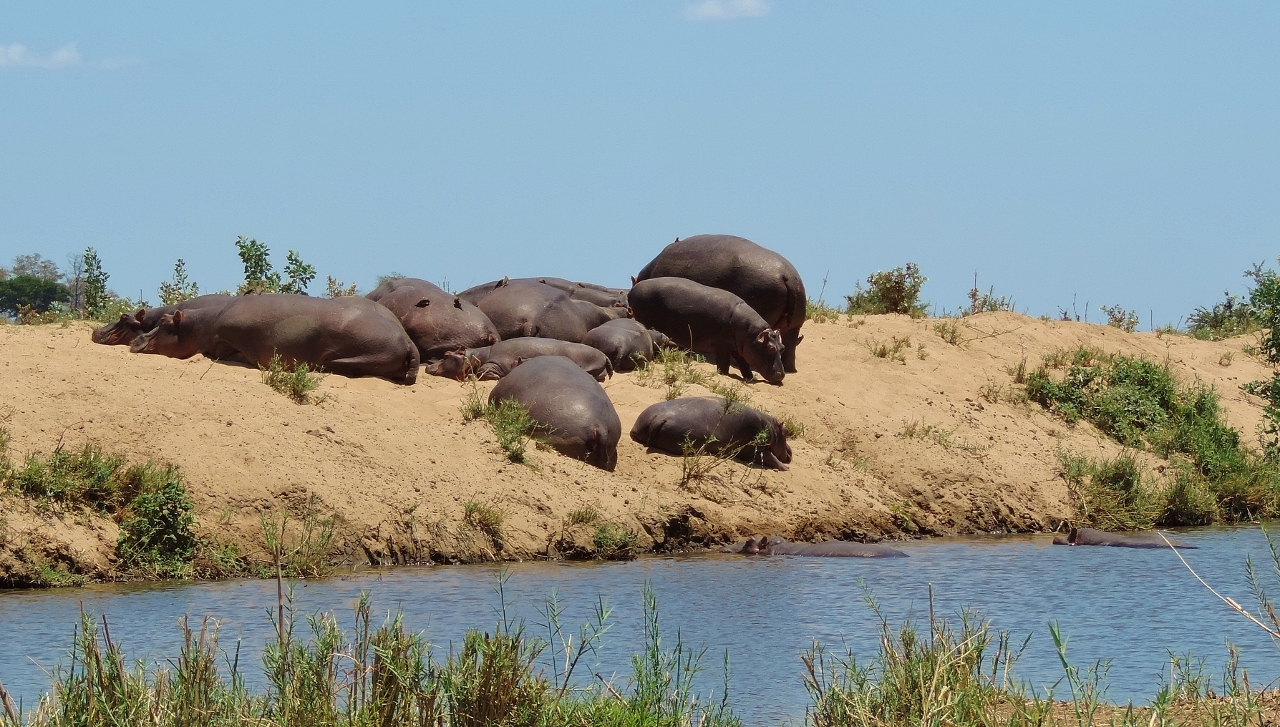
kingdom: Animalia
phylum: Chordata
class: Mammalia
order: Artiodactyla
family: Hippopotamidae
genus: Hippopotamus
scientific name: Hippopotamus amphibius
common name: Common hippopotamus
